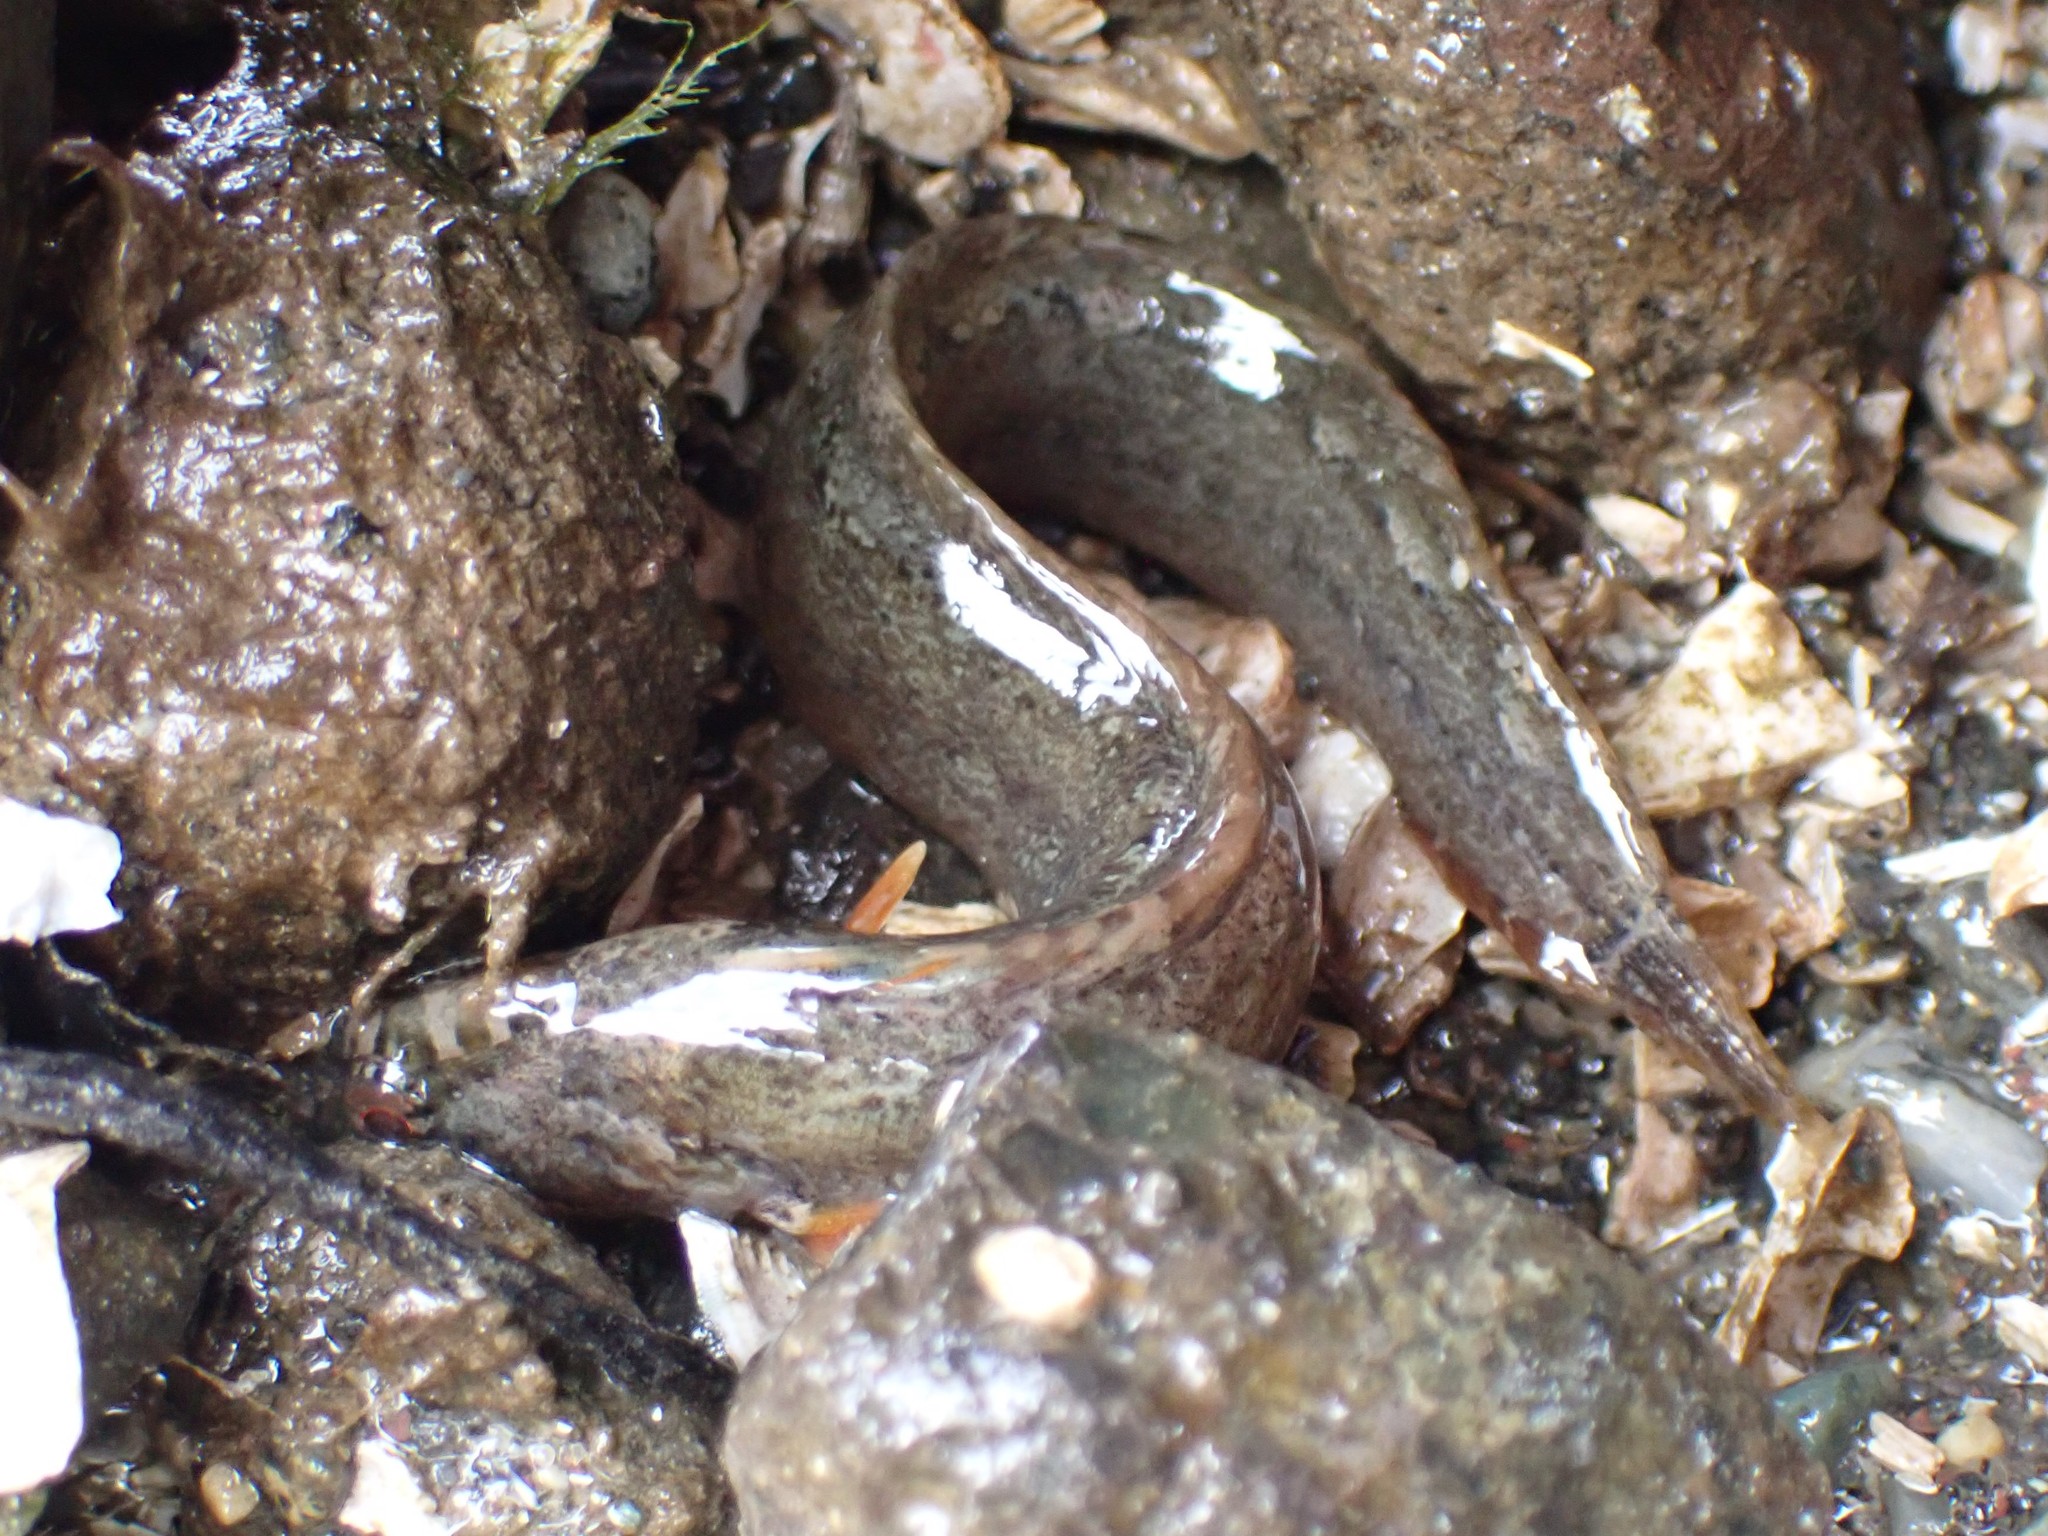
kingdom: Animalia
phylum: Chordata
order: Perciformes
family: Stichaeidae
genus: Anoplarchus
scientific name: Anoplarchus purpurescens
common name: High cockscomb
